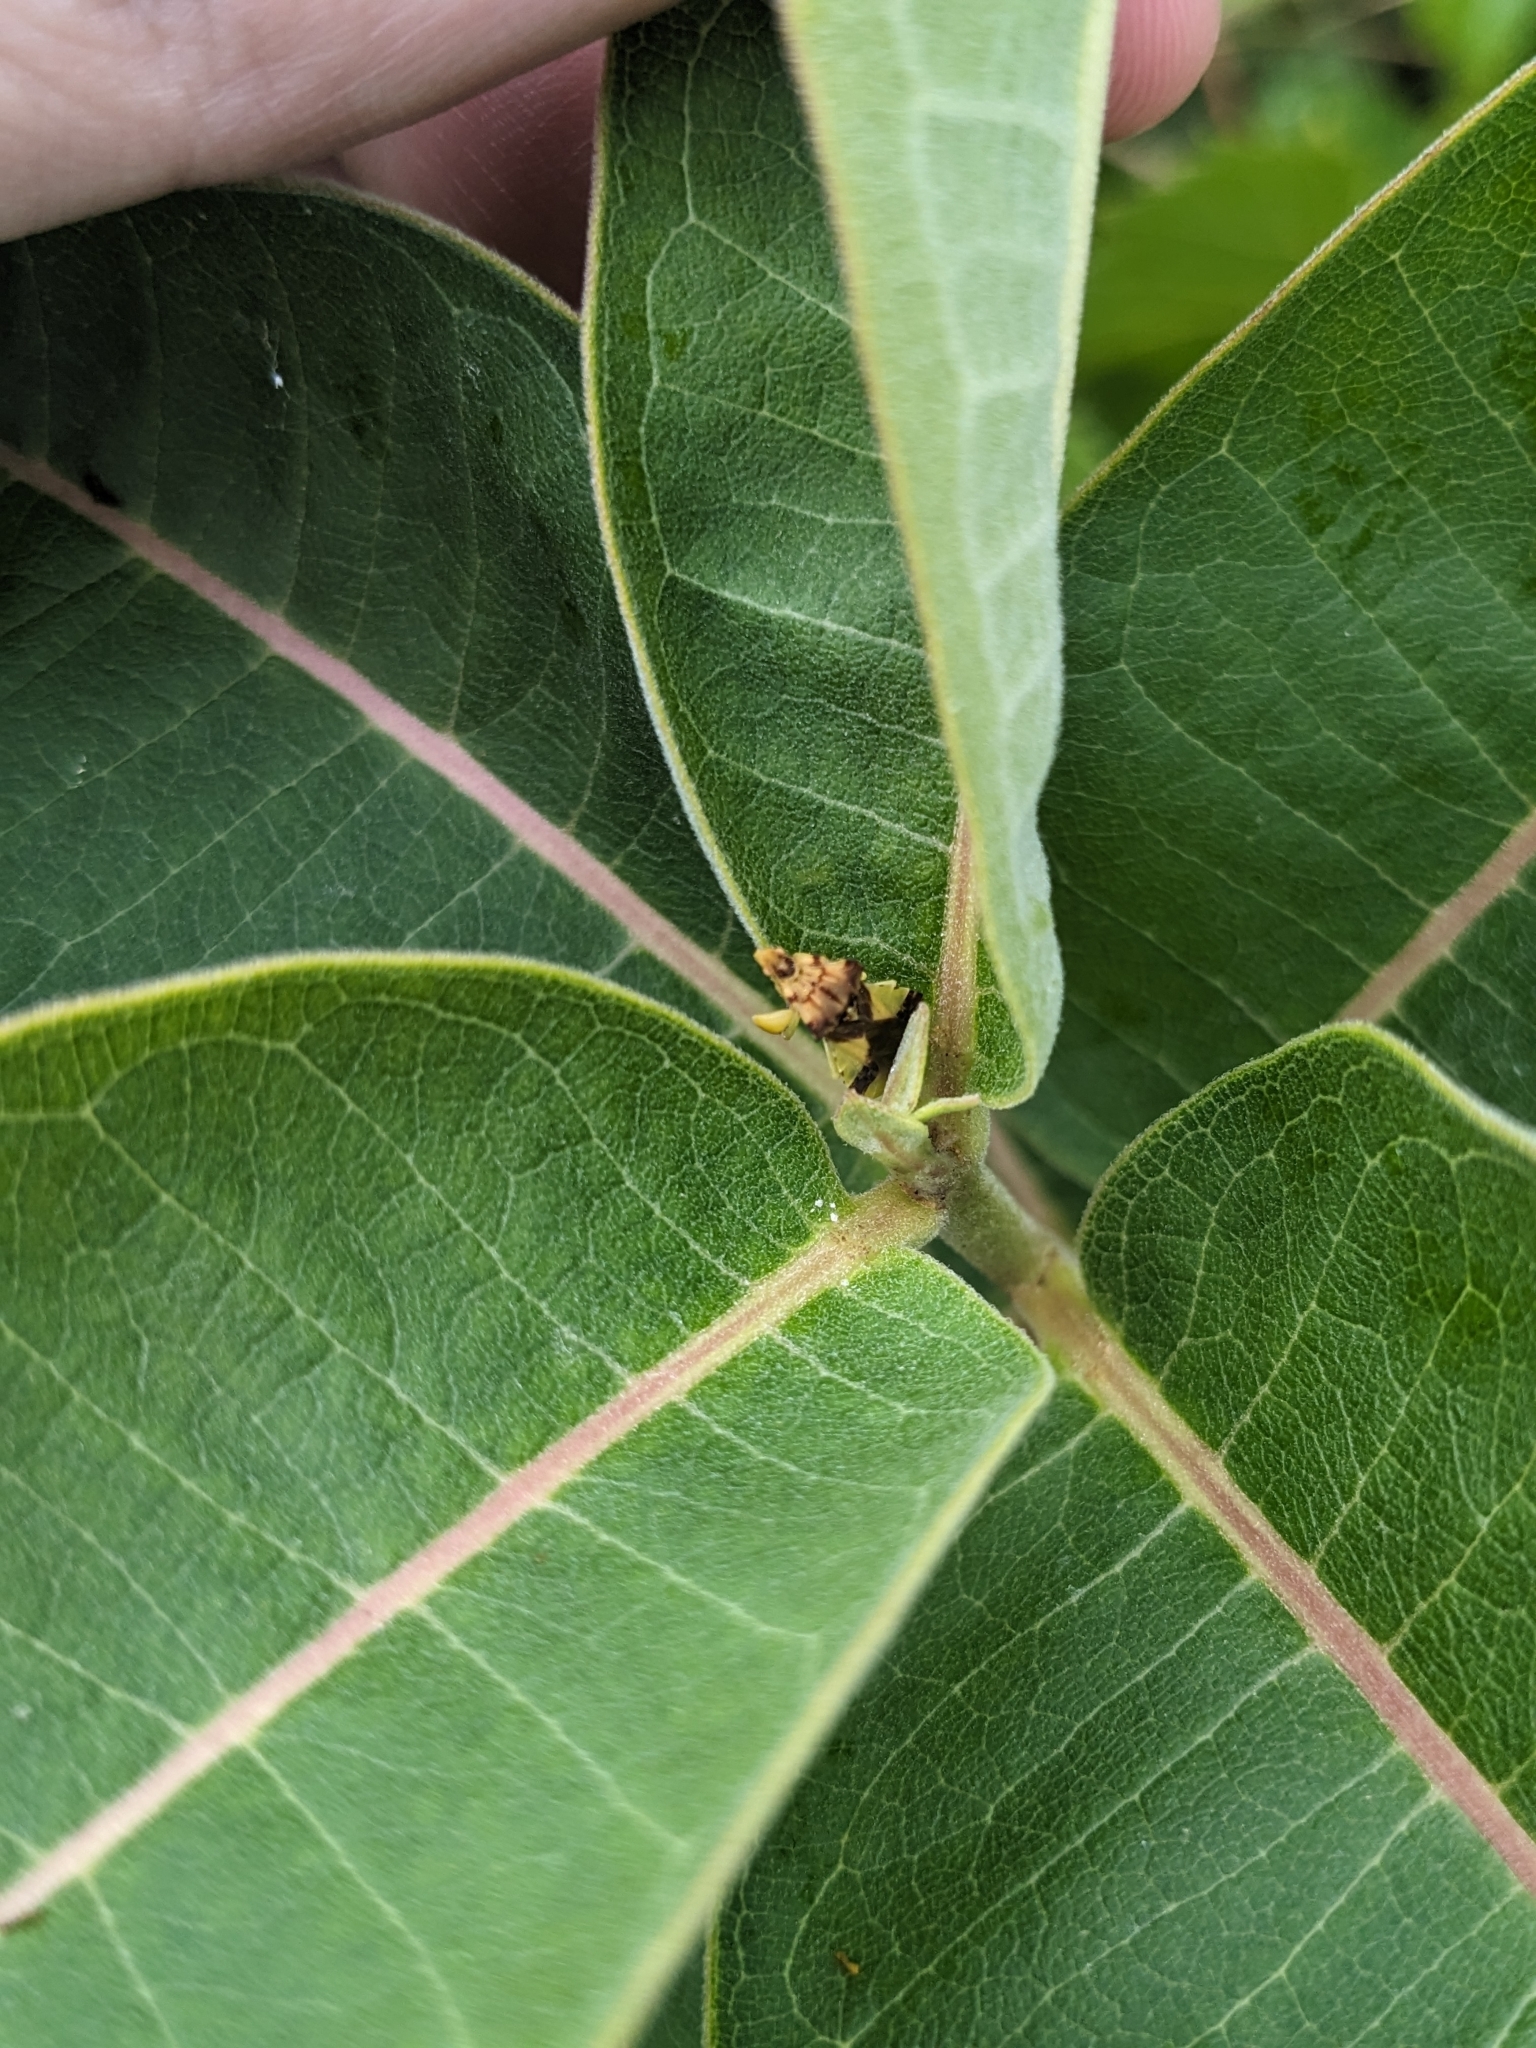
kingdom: Animalia
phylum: Arthropoda
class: Insecta
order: Hemiptera
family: Reduviidae
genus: Phymata
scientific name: Phymata americana
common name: Jagged ambush bug
